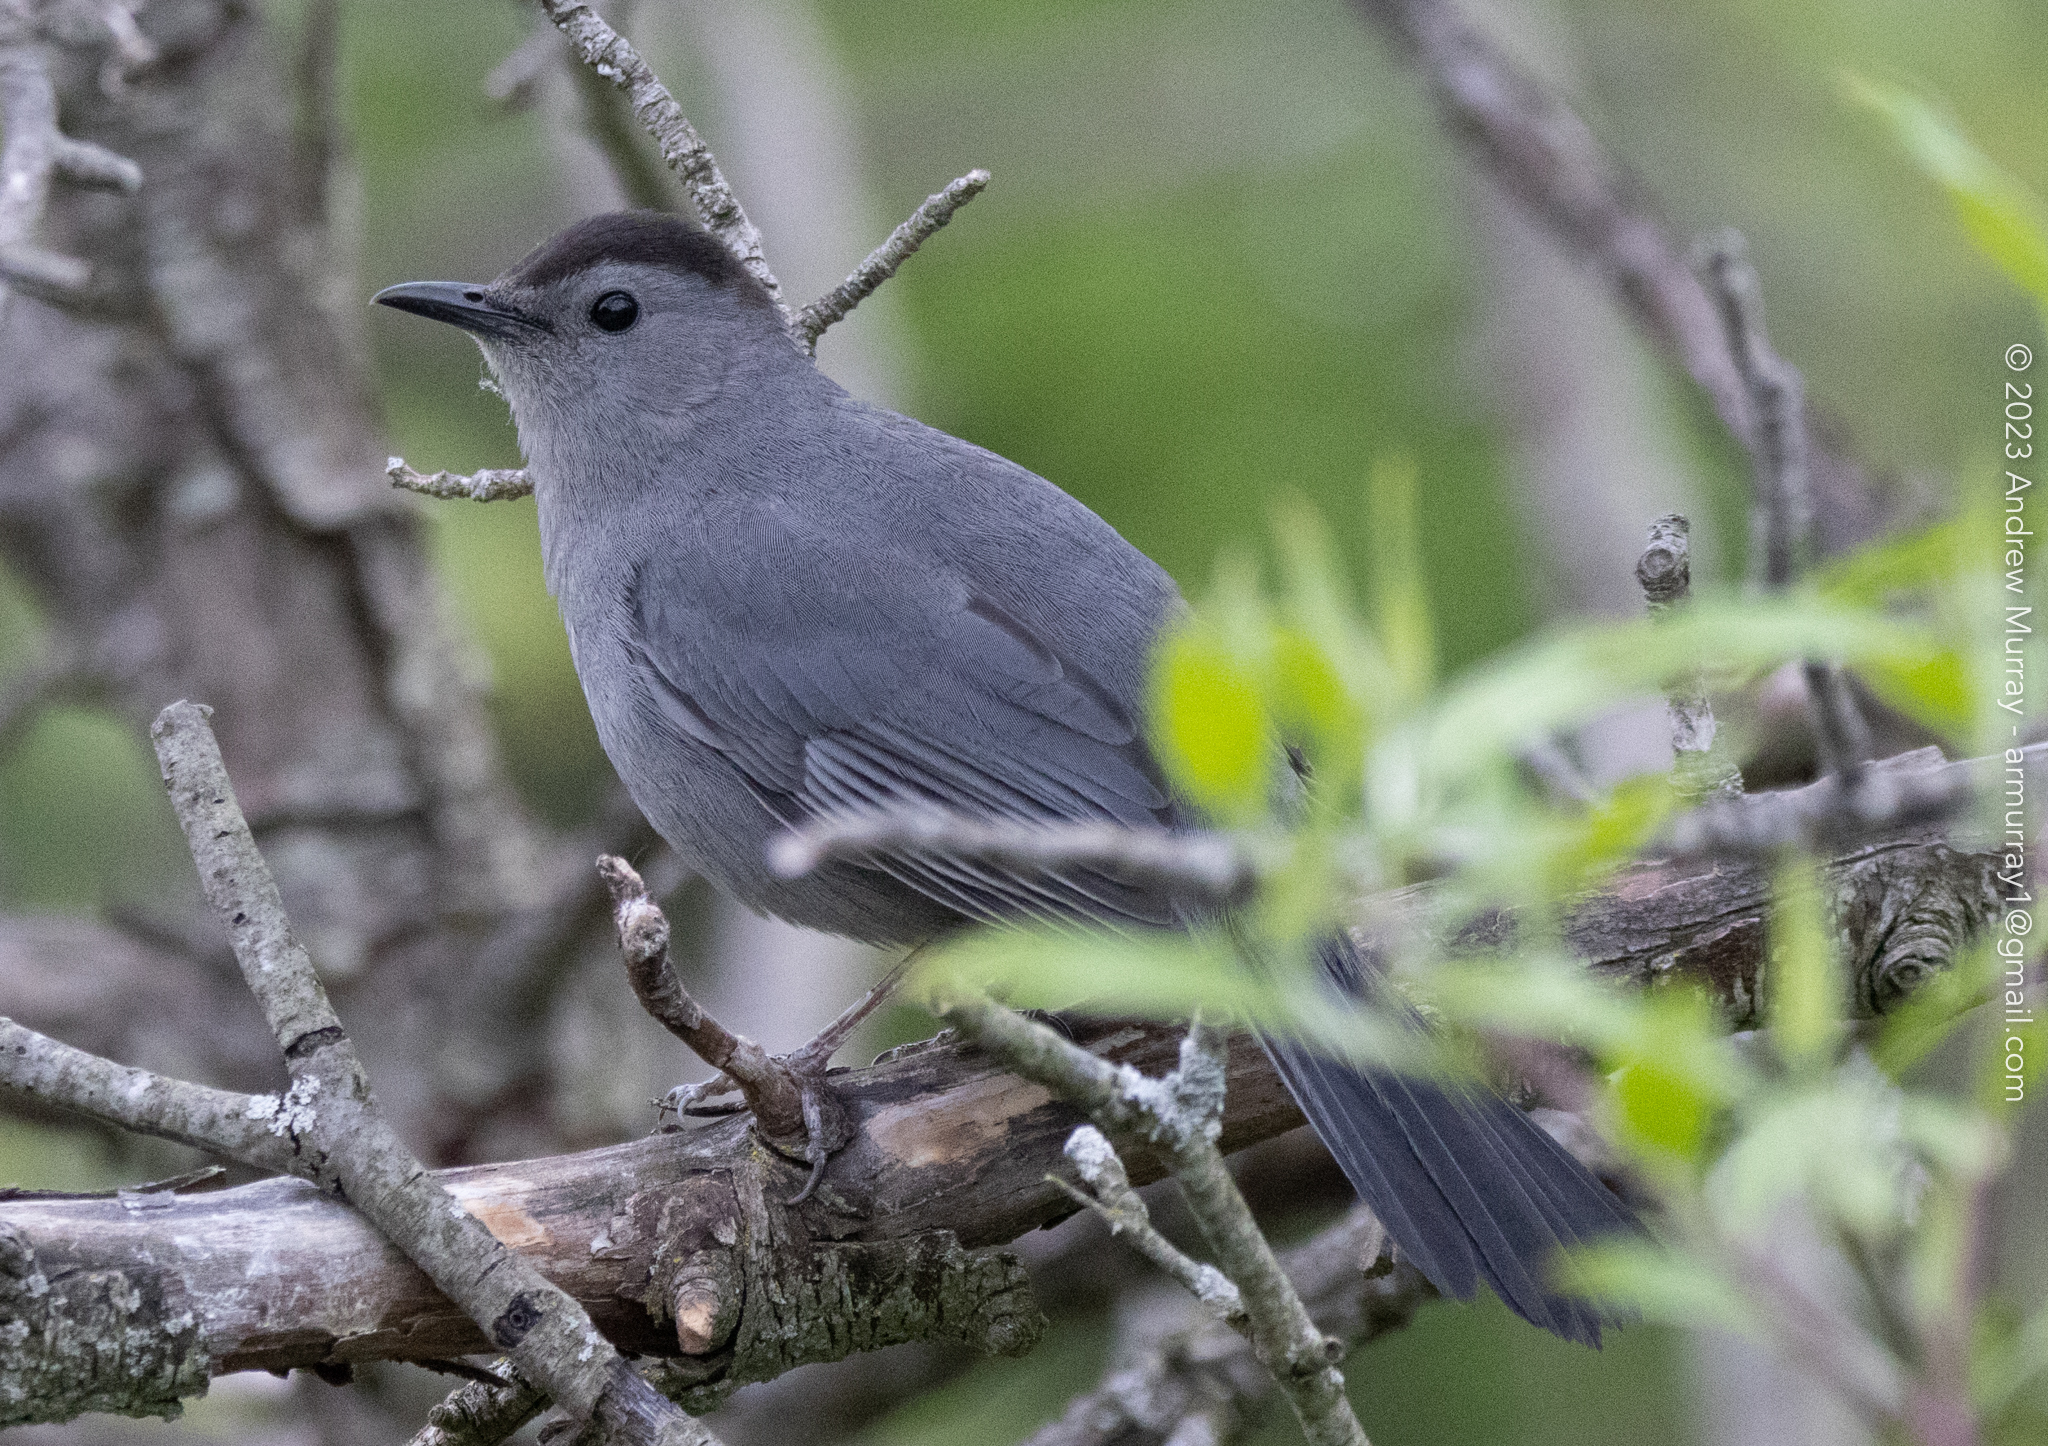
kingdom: Animalia
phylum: Chordata
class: Aves
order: Passeriformes
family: Mimidae
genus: Dumetella
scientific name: Dumetella carolinensis
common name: Gray catbird
